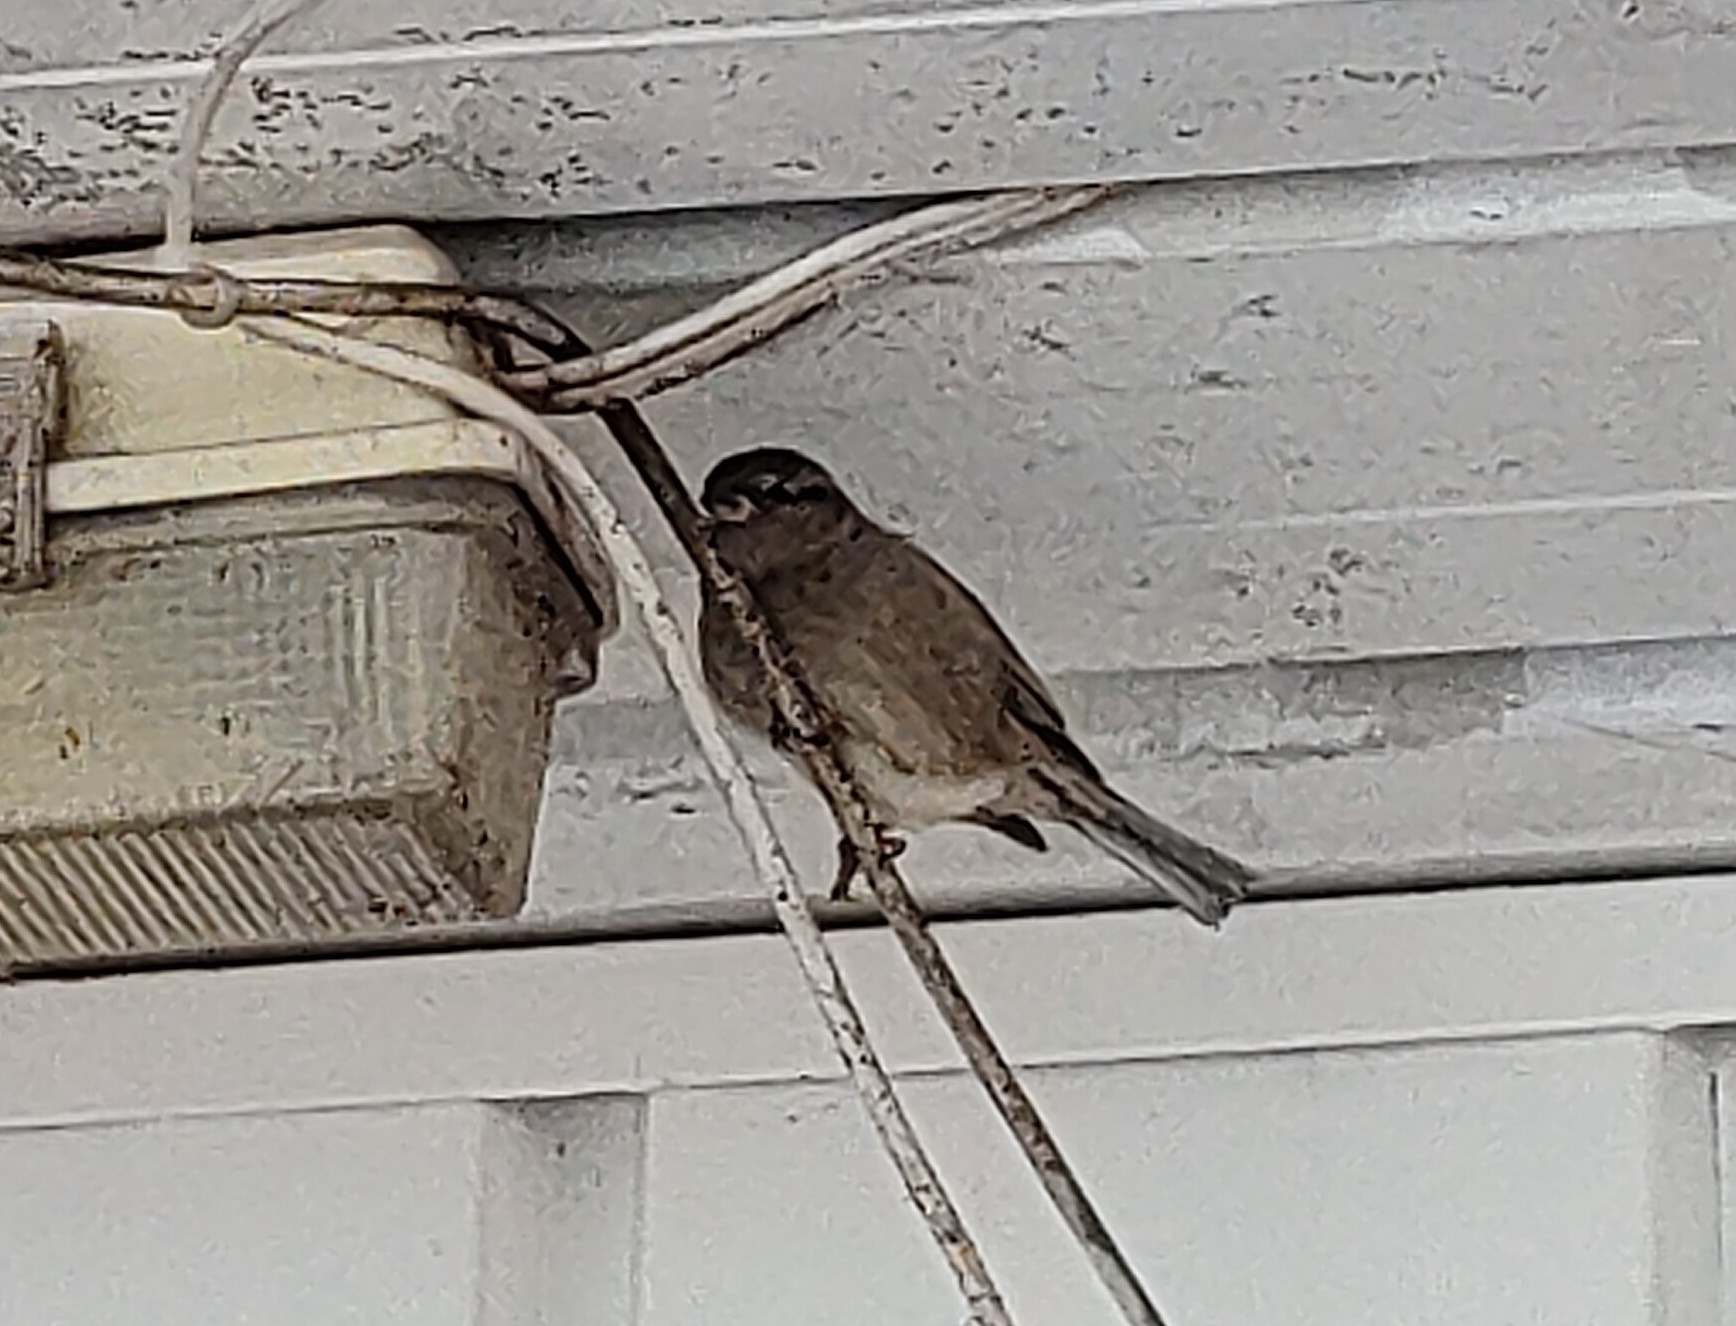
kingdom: Animalia
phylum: Chordata
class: Aves
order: Passeriformes
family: Passeridae
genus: Passer
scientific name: Passer domesticus
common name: House sparrow
